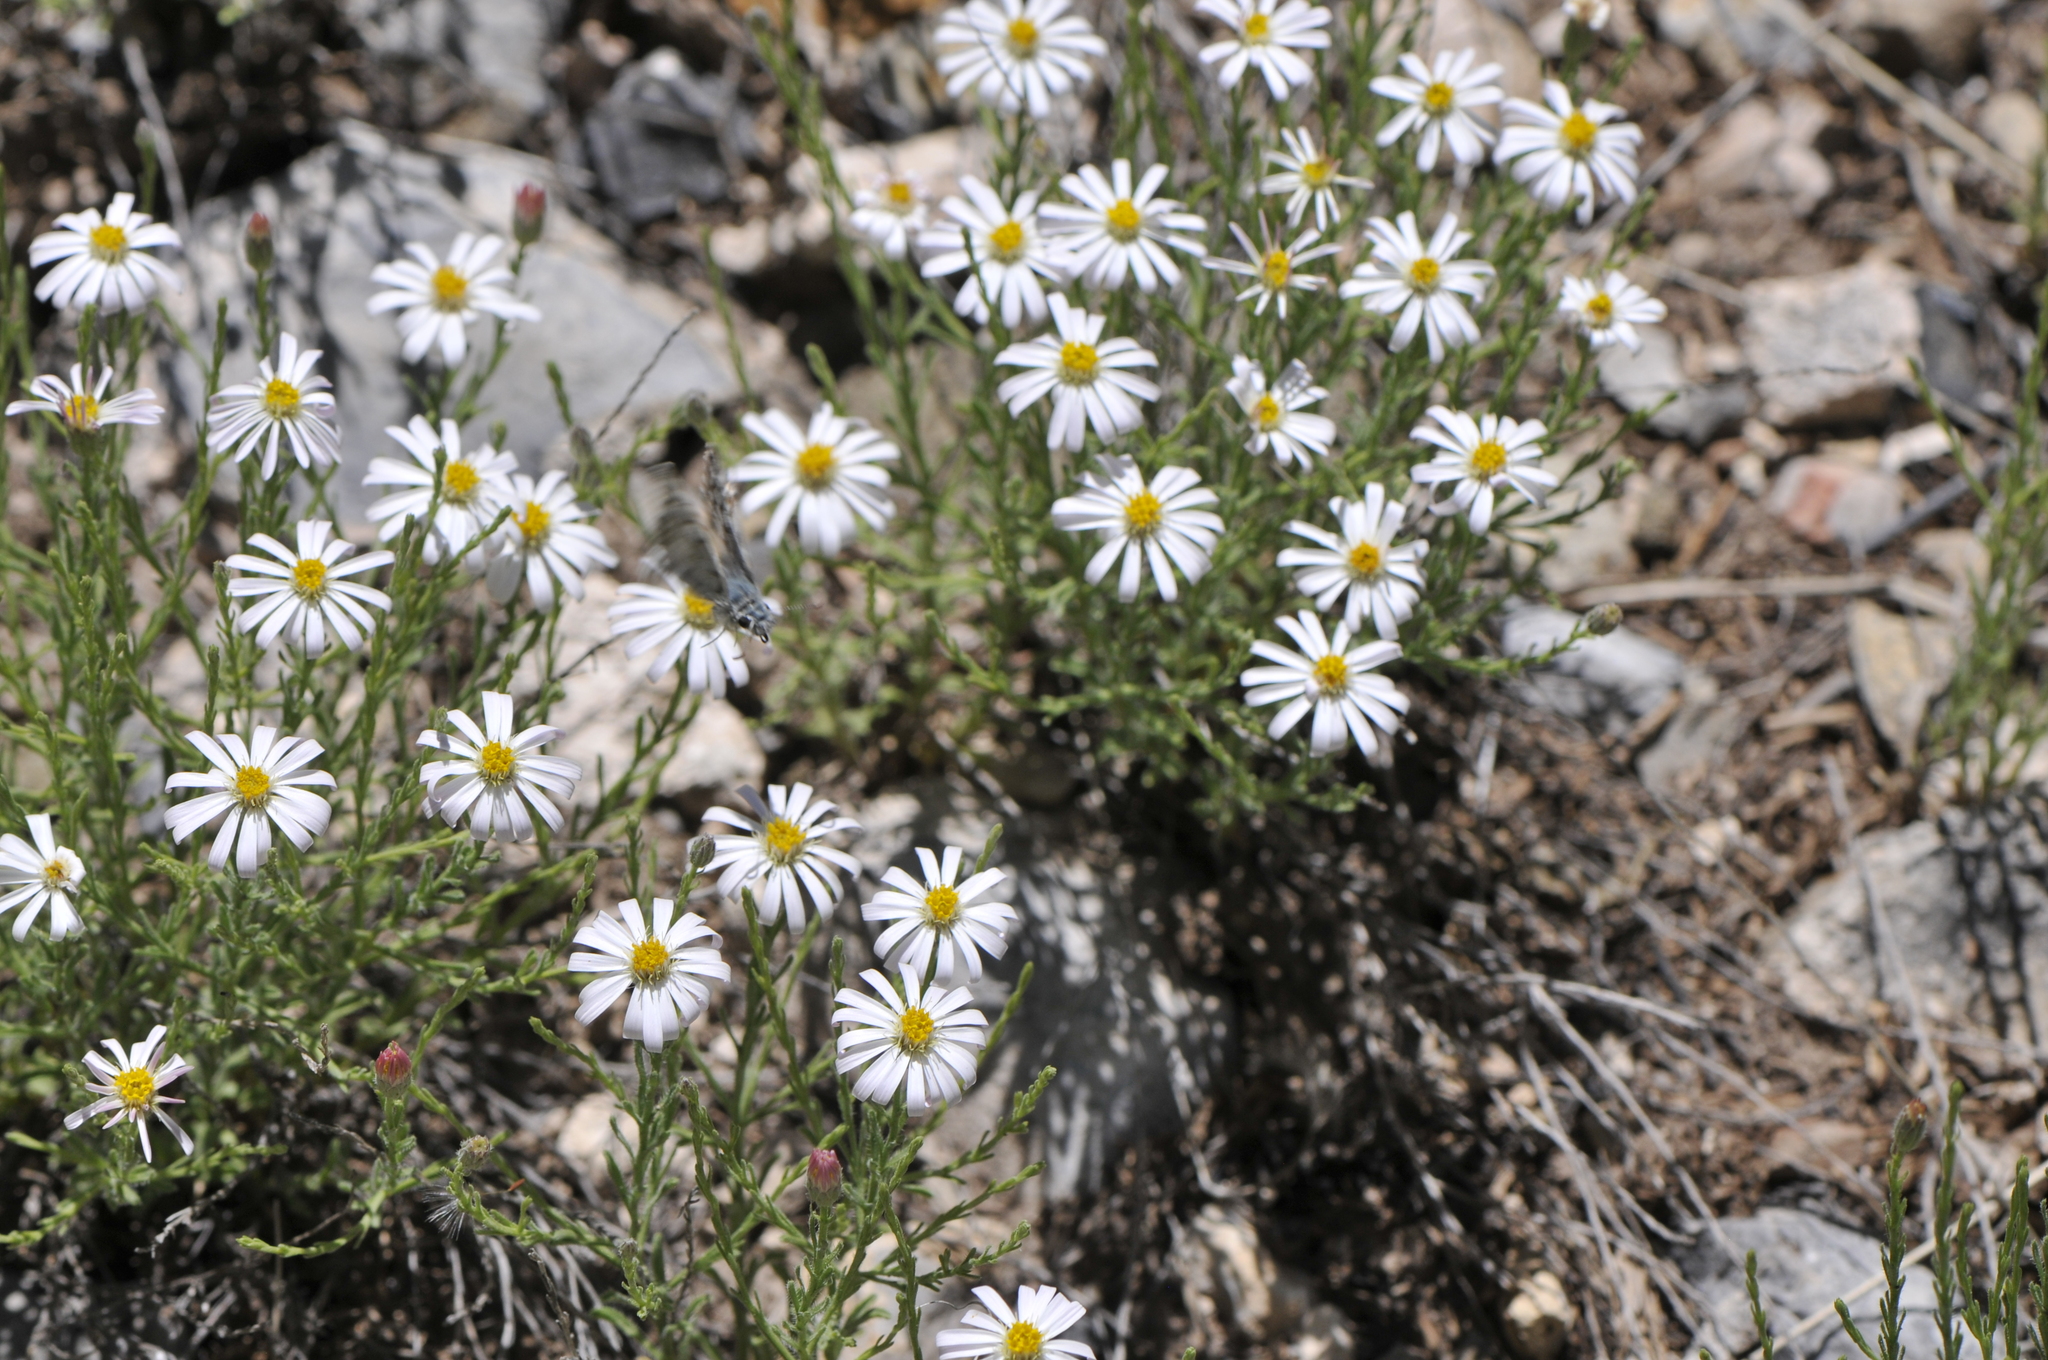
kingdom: Plantae
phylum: Tracheophyta
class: Magnoliopsida
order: Asterales
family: Asteraceae
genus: Chaetopappa
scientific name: Chaetopappa ericoides
